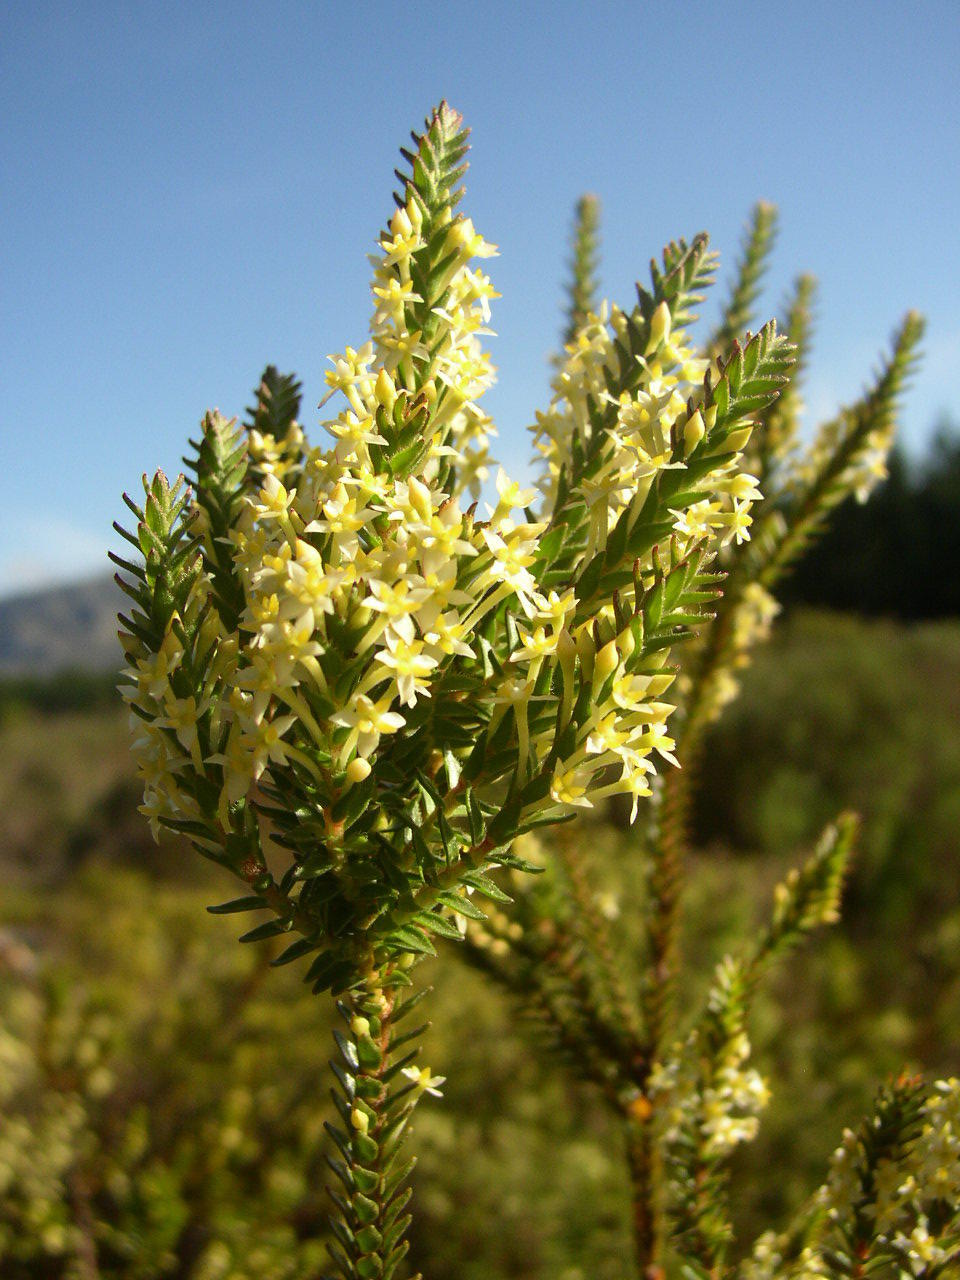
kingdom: Plantae
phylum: Tracheophyta
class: Magnoliopsida
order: Malvales
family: Thymelaeaceae
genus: Struthiola
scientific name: Struthiola striata
